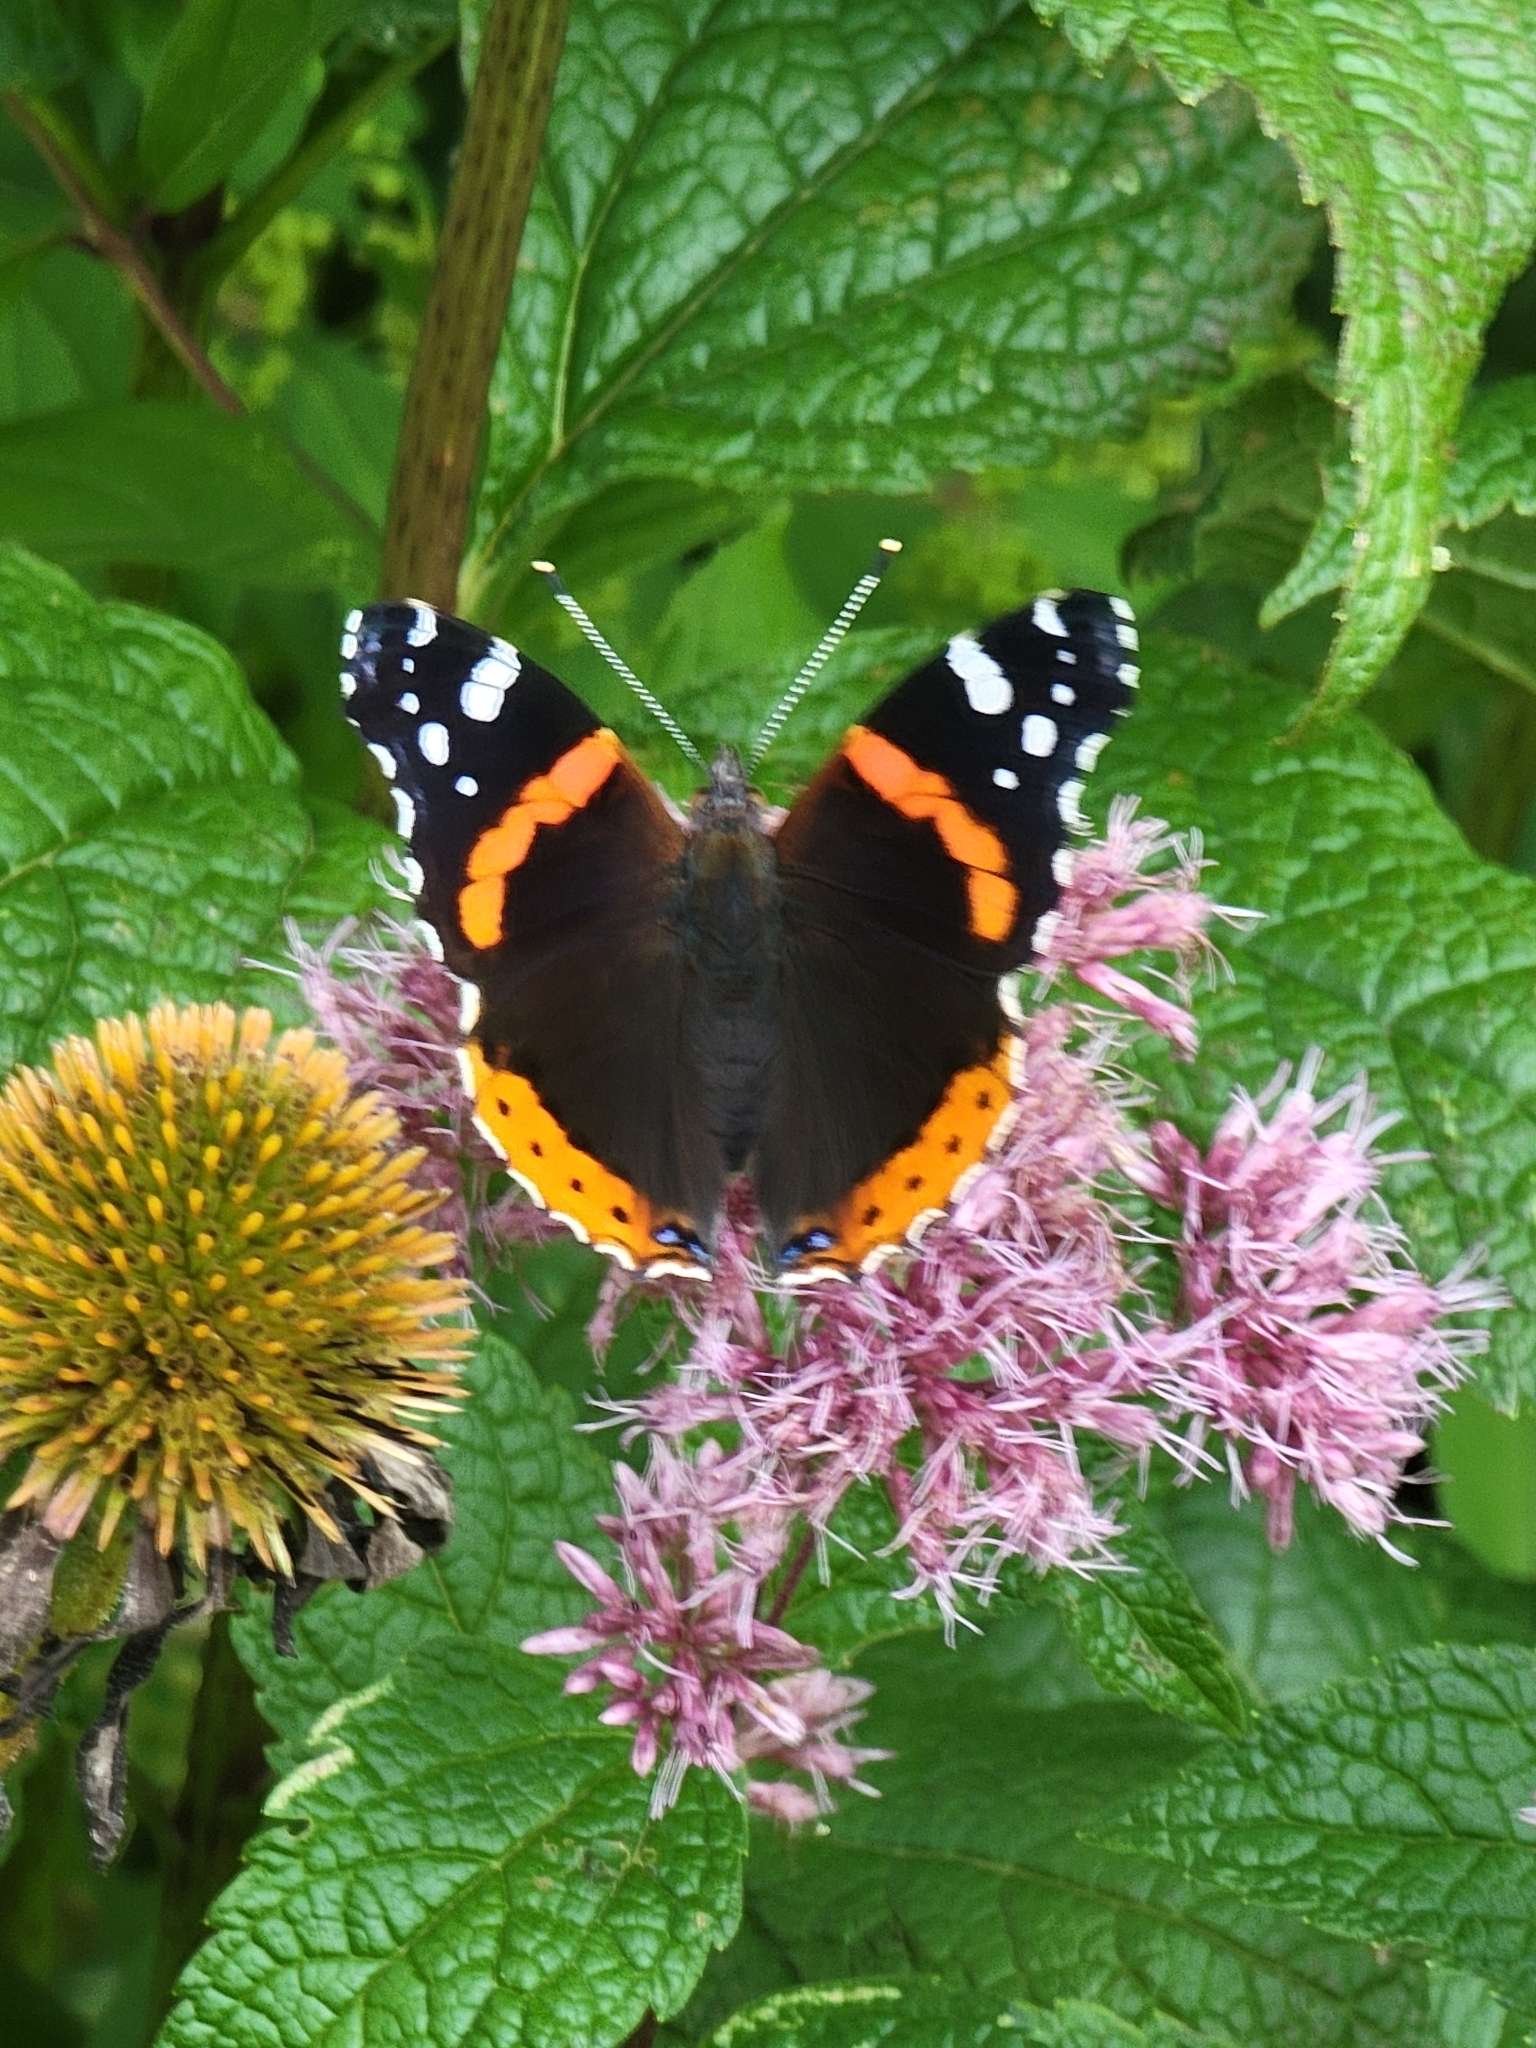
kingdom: Animalia
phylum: Arthropoda
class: Insecta
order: Lepidoptera
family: Nymphalidae
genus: Vanessa
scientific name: Vanessa atalanta
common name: Red admiral
